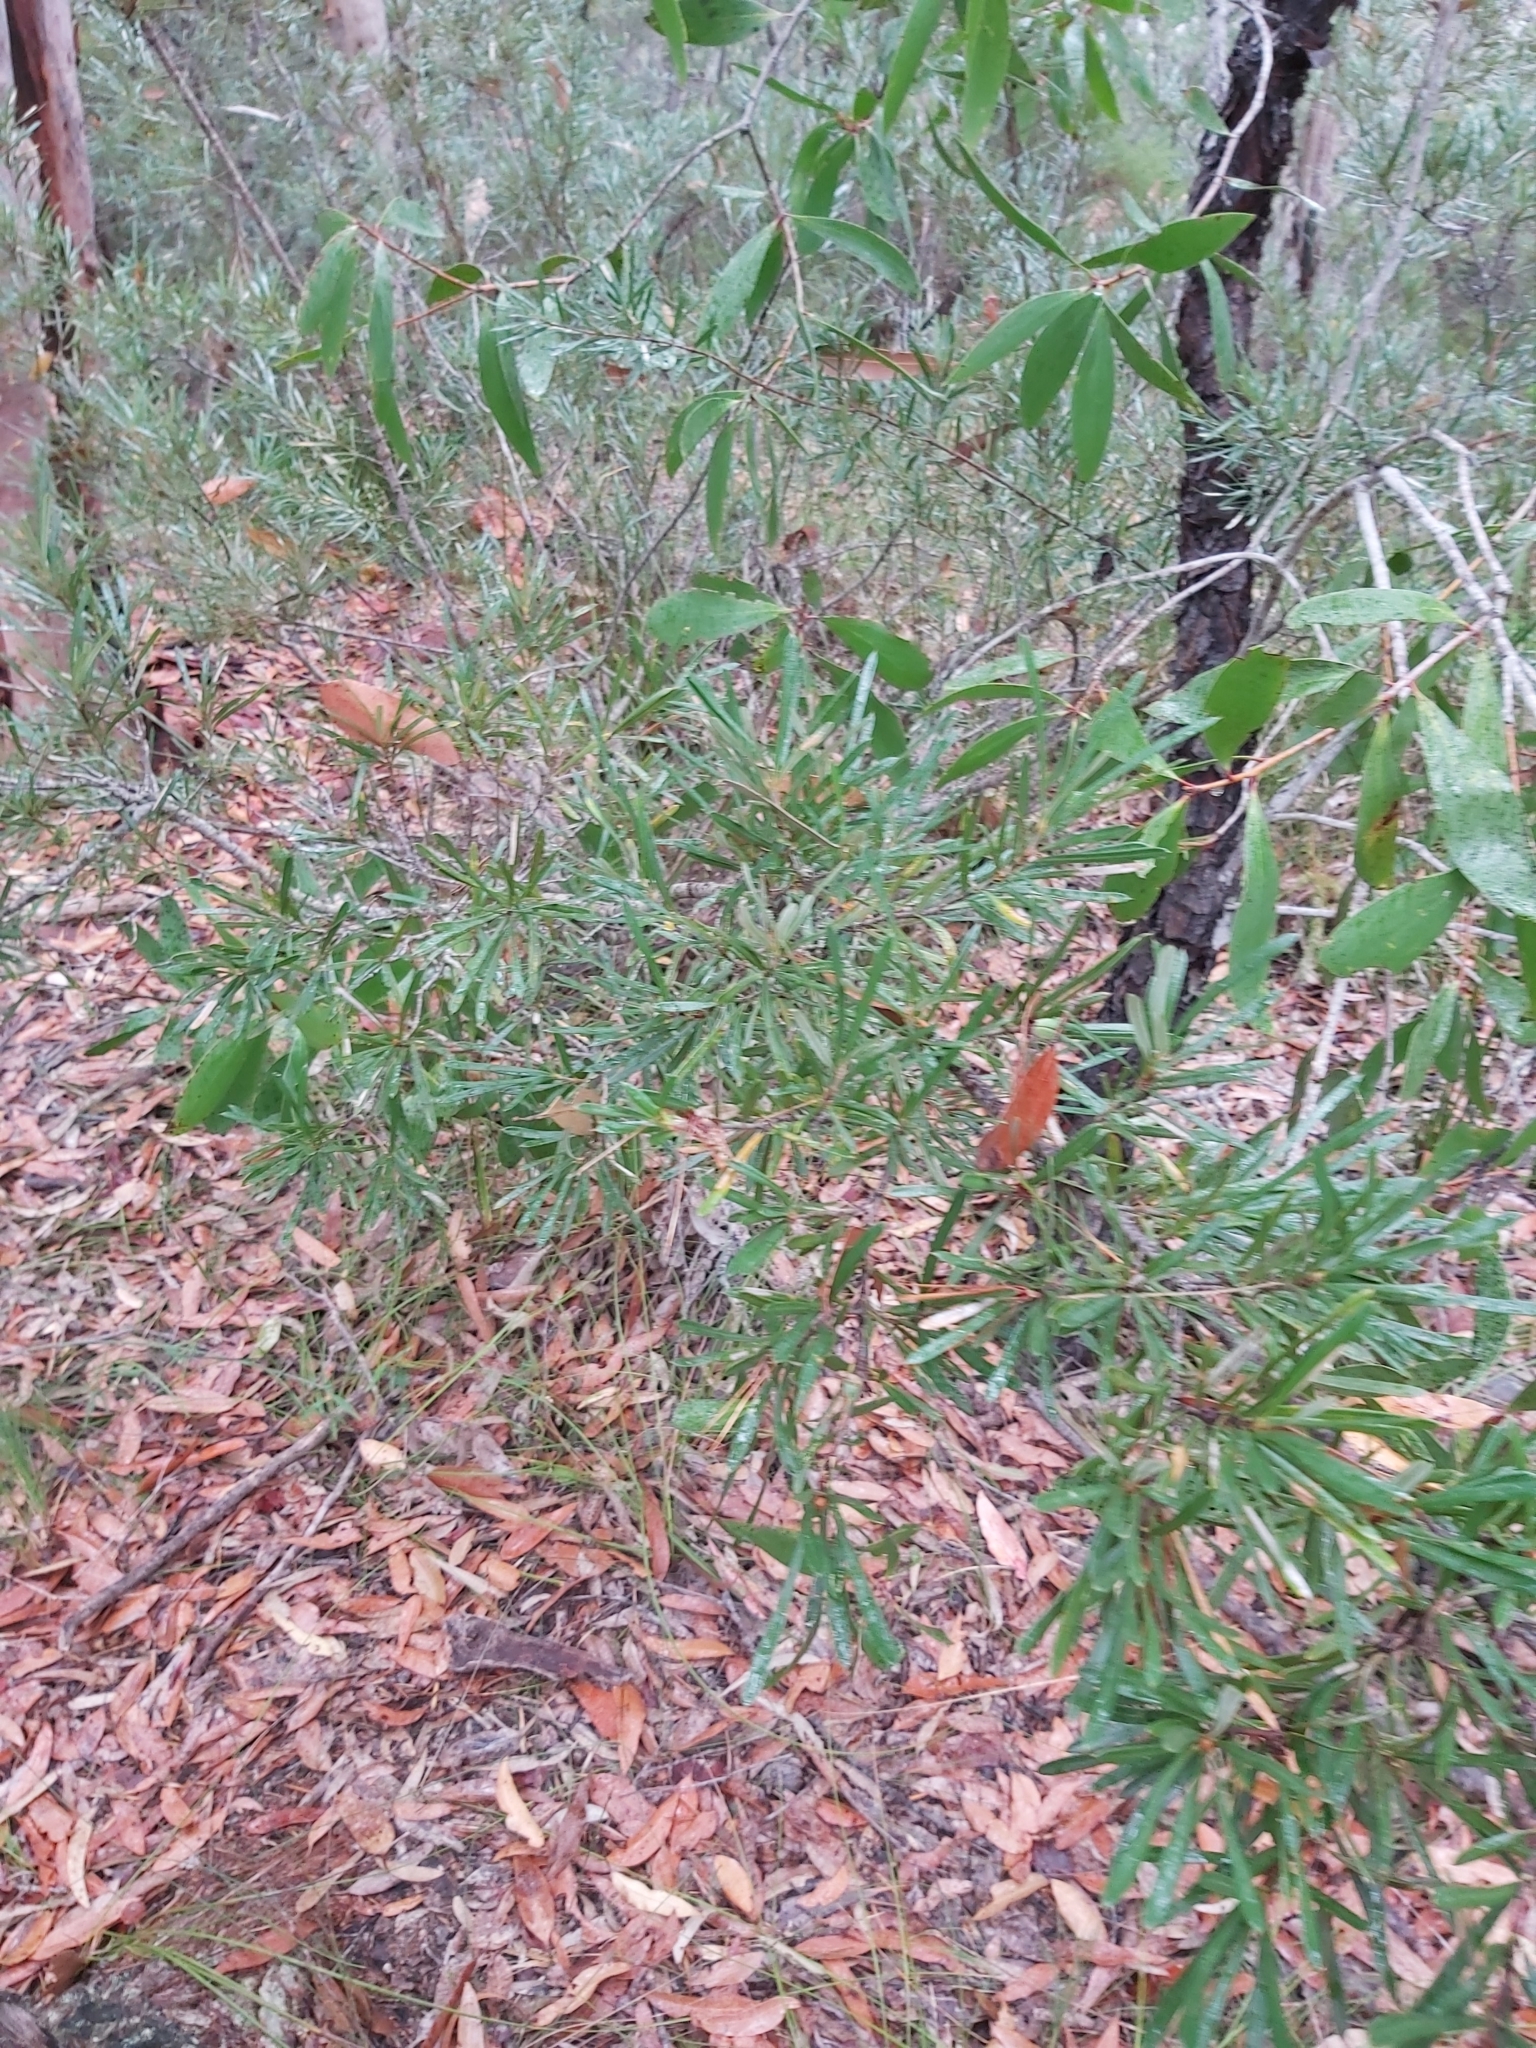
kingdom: Plantae
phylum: Tracheophyta
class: Magnoliopsida
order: Proteales
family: Proteaceae
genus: Lambertia
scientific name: Lambertia formosa
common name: Mountain-devil
